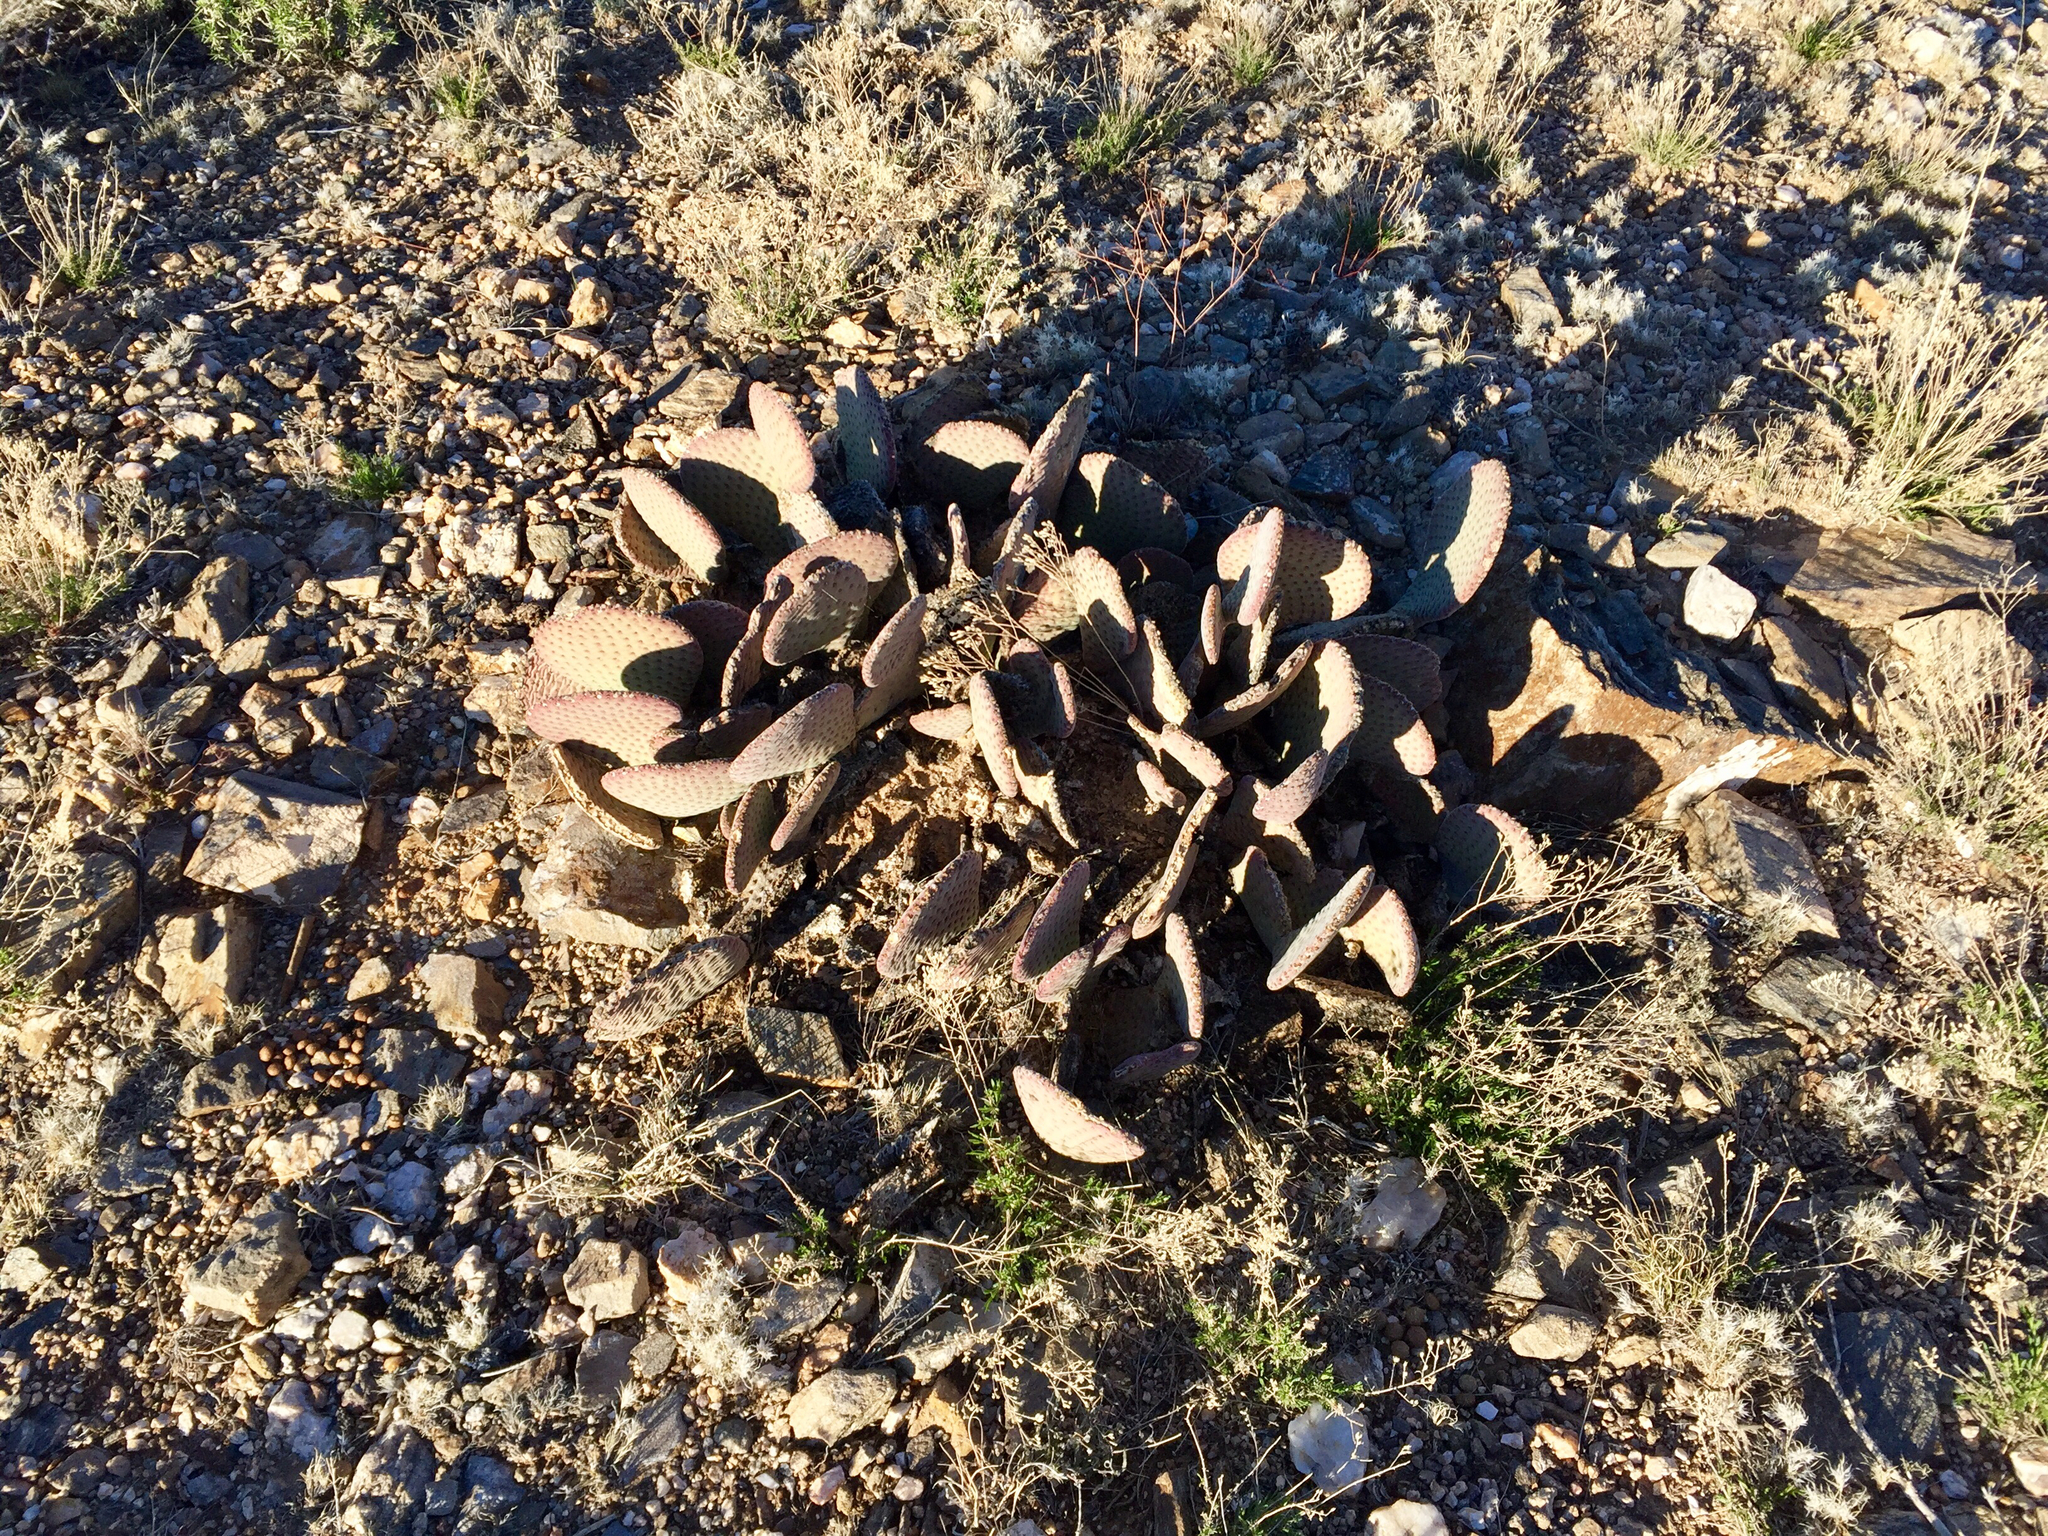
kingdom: Plantae
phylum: Tracheophyta
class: Magnoliopsida
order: Caryophyllales
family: Cactaceae
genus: Opuntia
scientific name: Opuntia basilaris
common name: Beavertail prickly-pear
